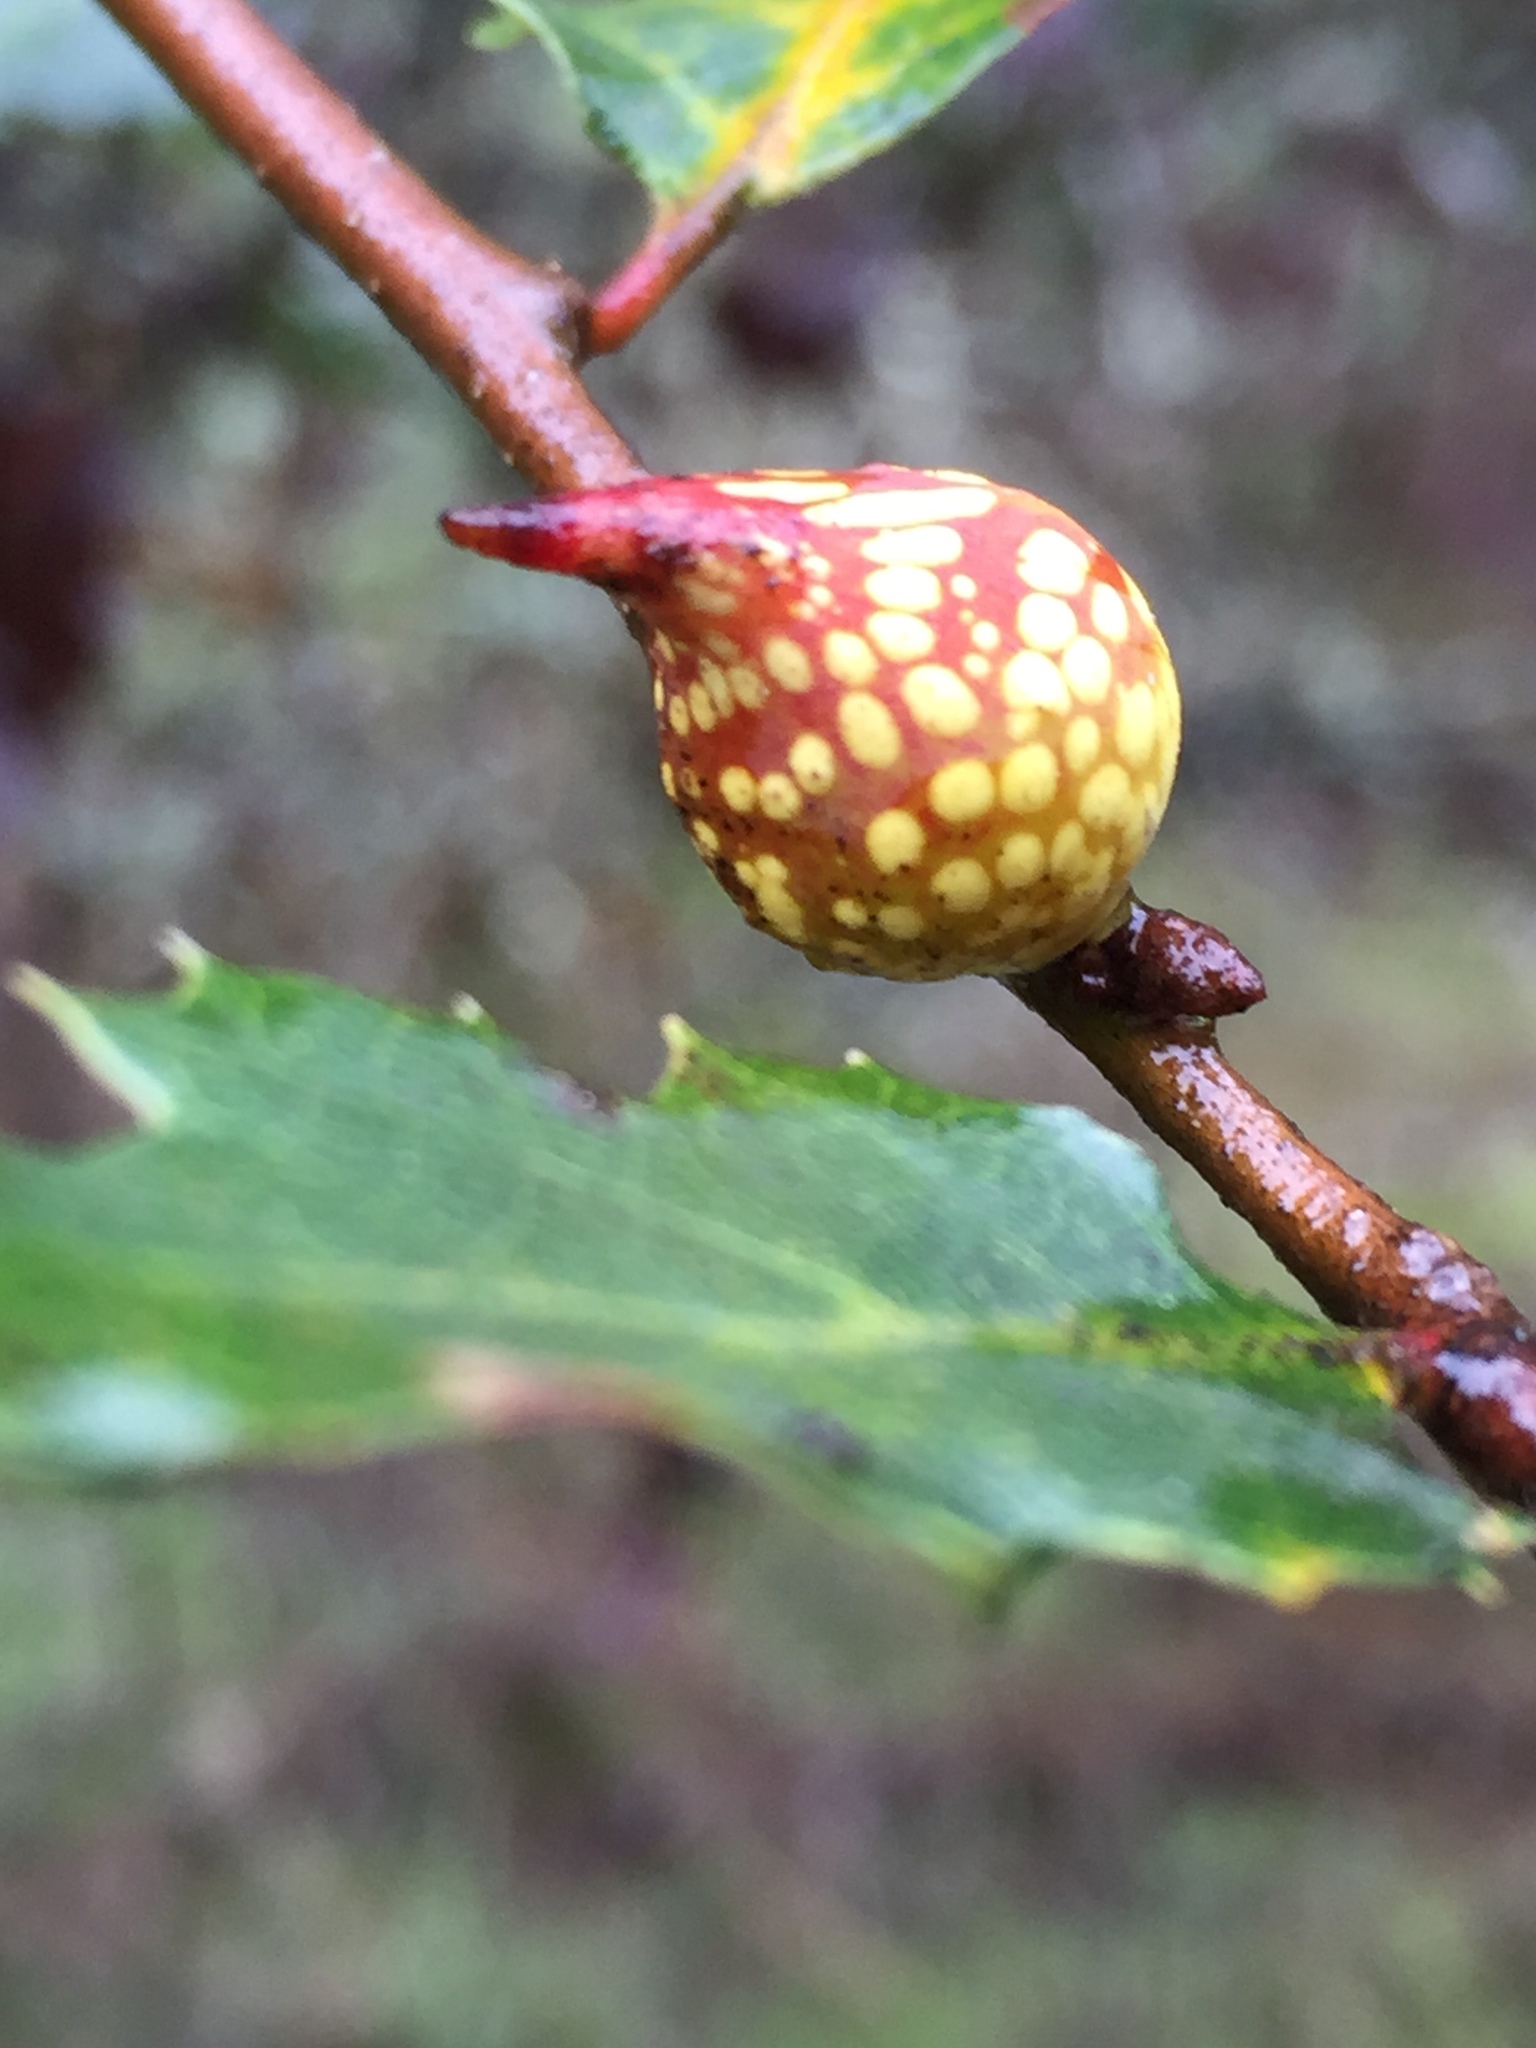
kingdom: Plantae
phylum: Tracheophyta
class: Magnoliopsida
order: Fagales
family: Fagaceae
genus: Quercus
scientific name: Quercus berberidifolia
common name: California scrub oak
